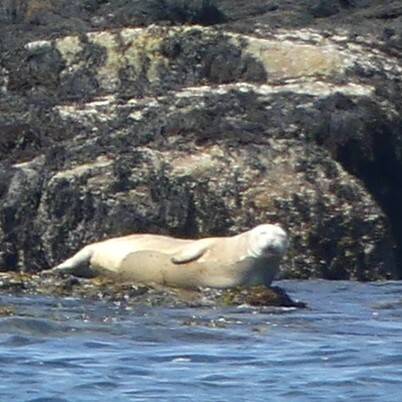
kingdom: Animalia
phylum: Chordata
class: Mammalia
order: Carnivora
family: Phocidae
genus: Phoca
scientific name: Phoca vitulina
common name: Harbor seal
